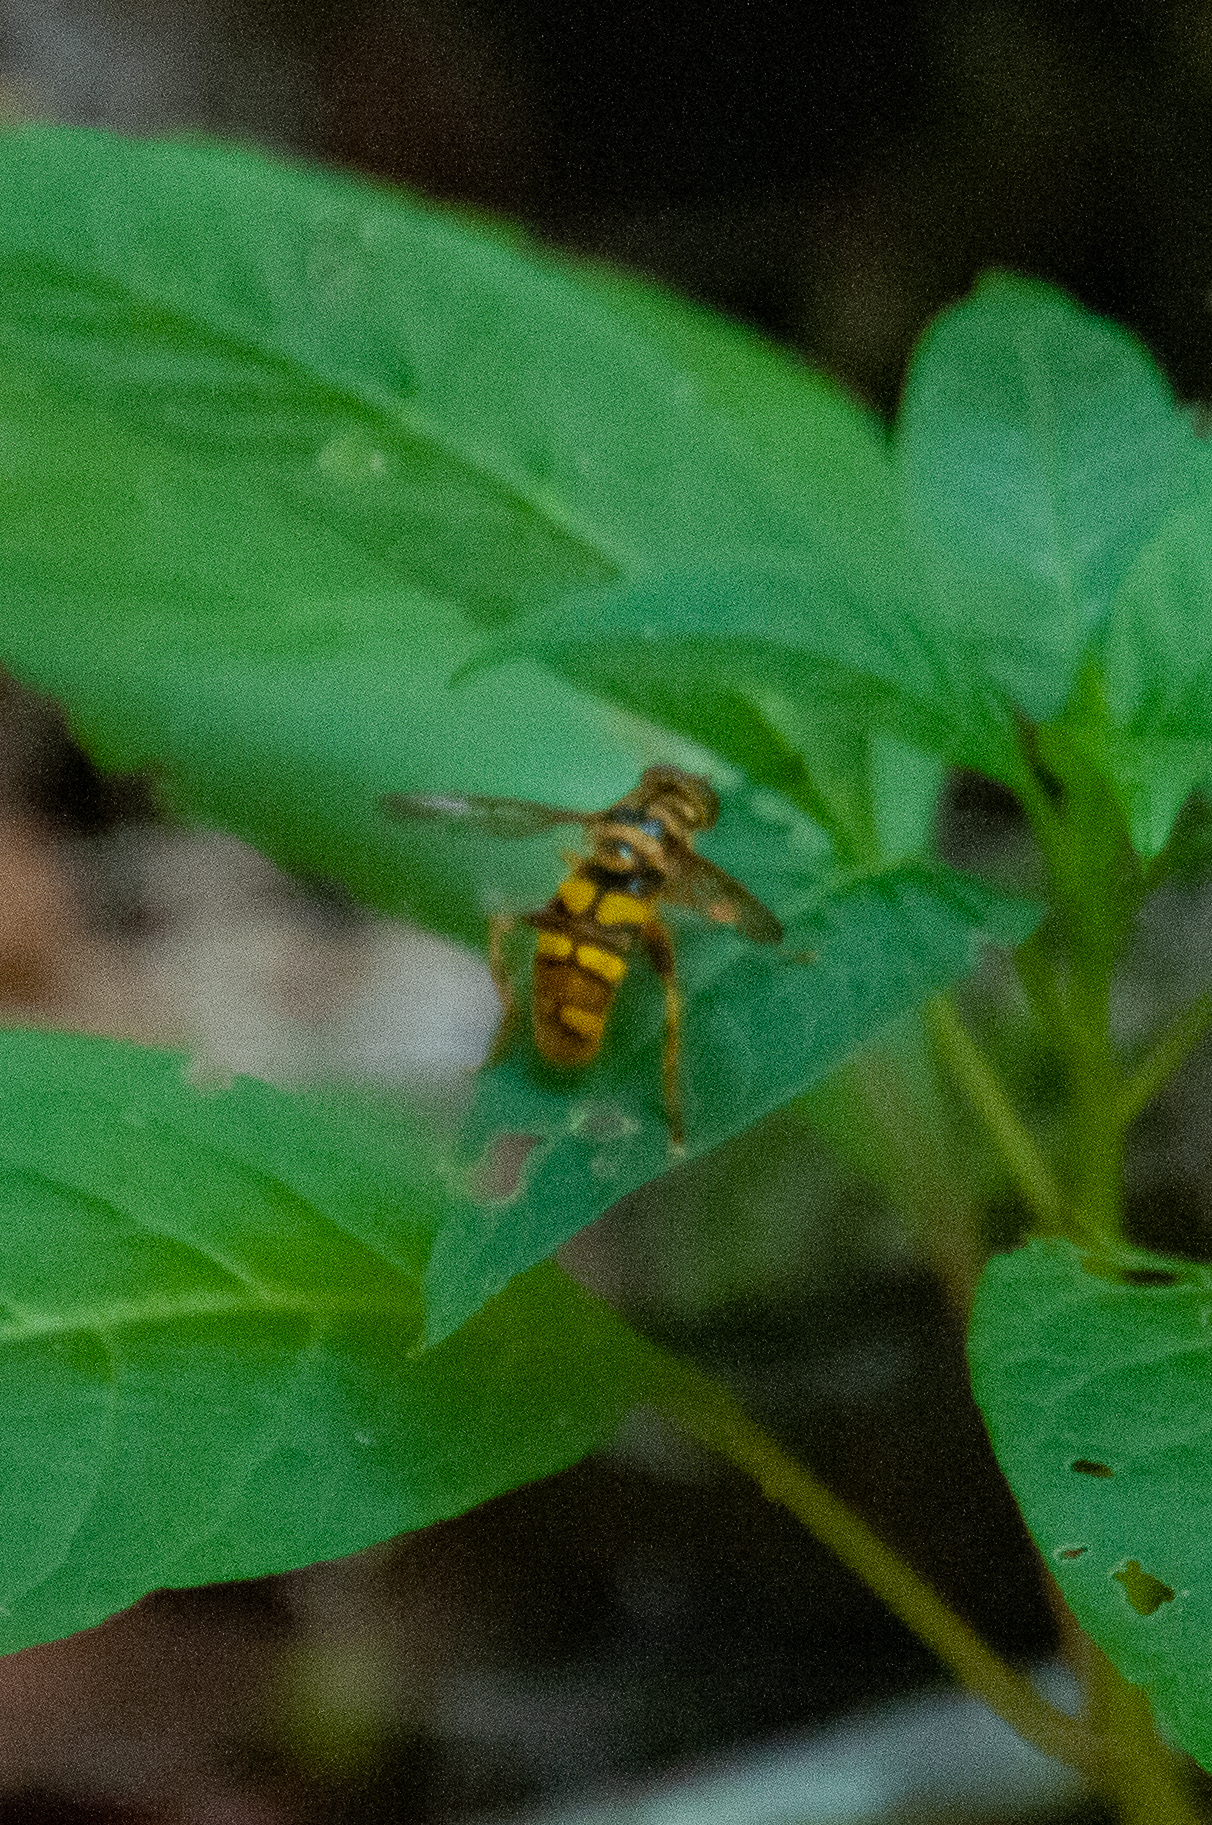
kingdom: Animalia
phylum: Arthropoda
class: Insecta
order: Diptera
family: Syrphidae
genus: Milesia
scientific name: Milesia virginiensis
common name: Virginia giant
